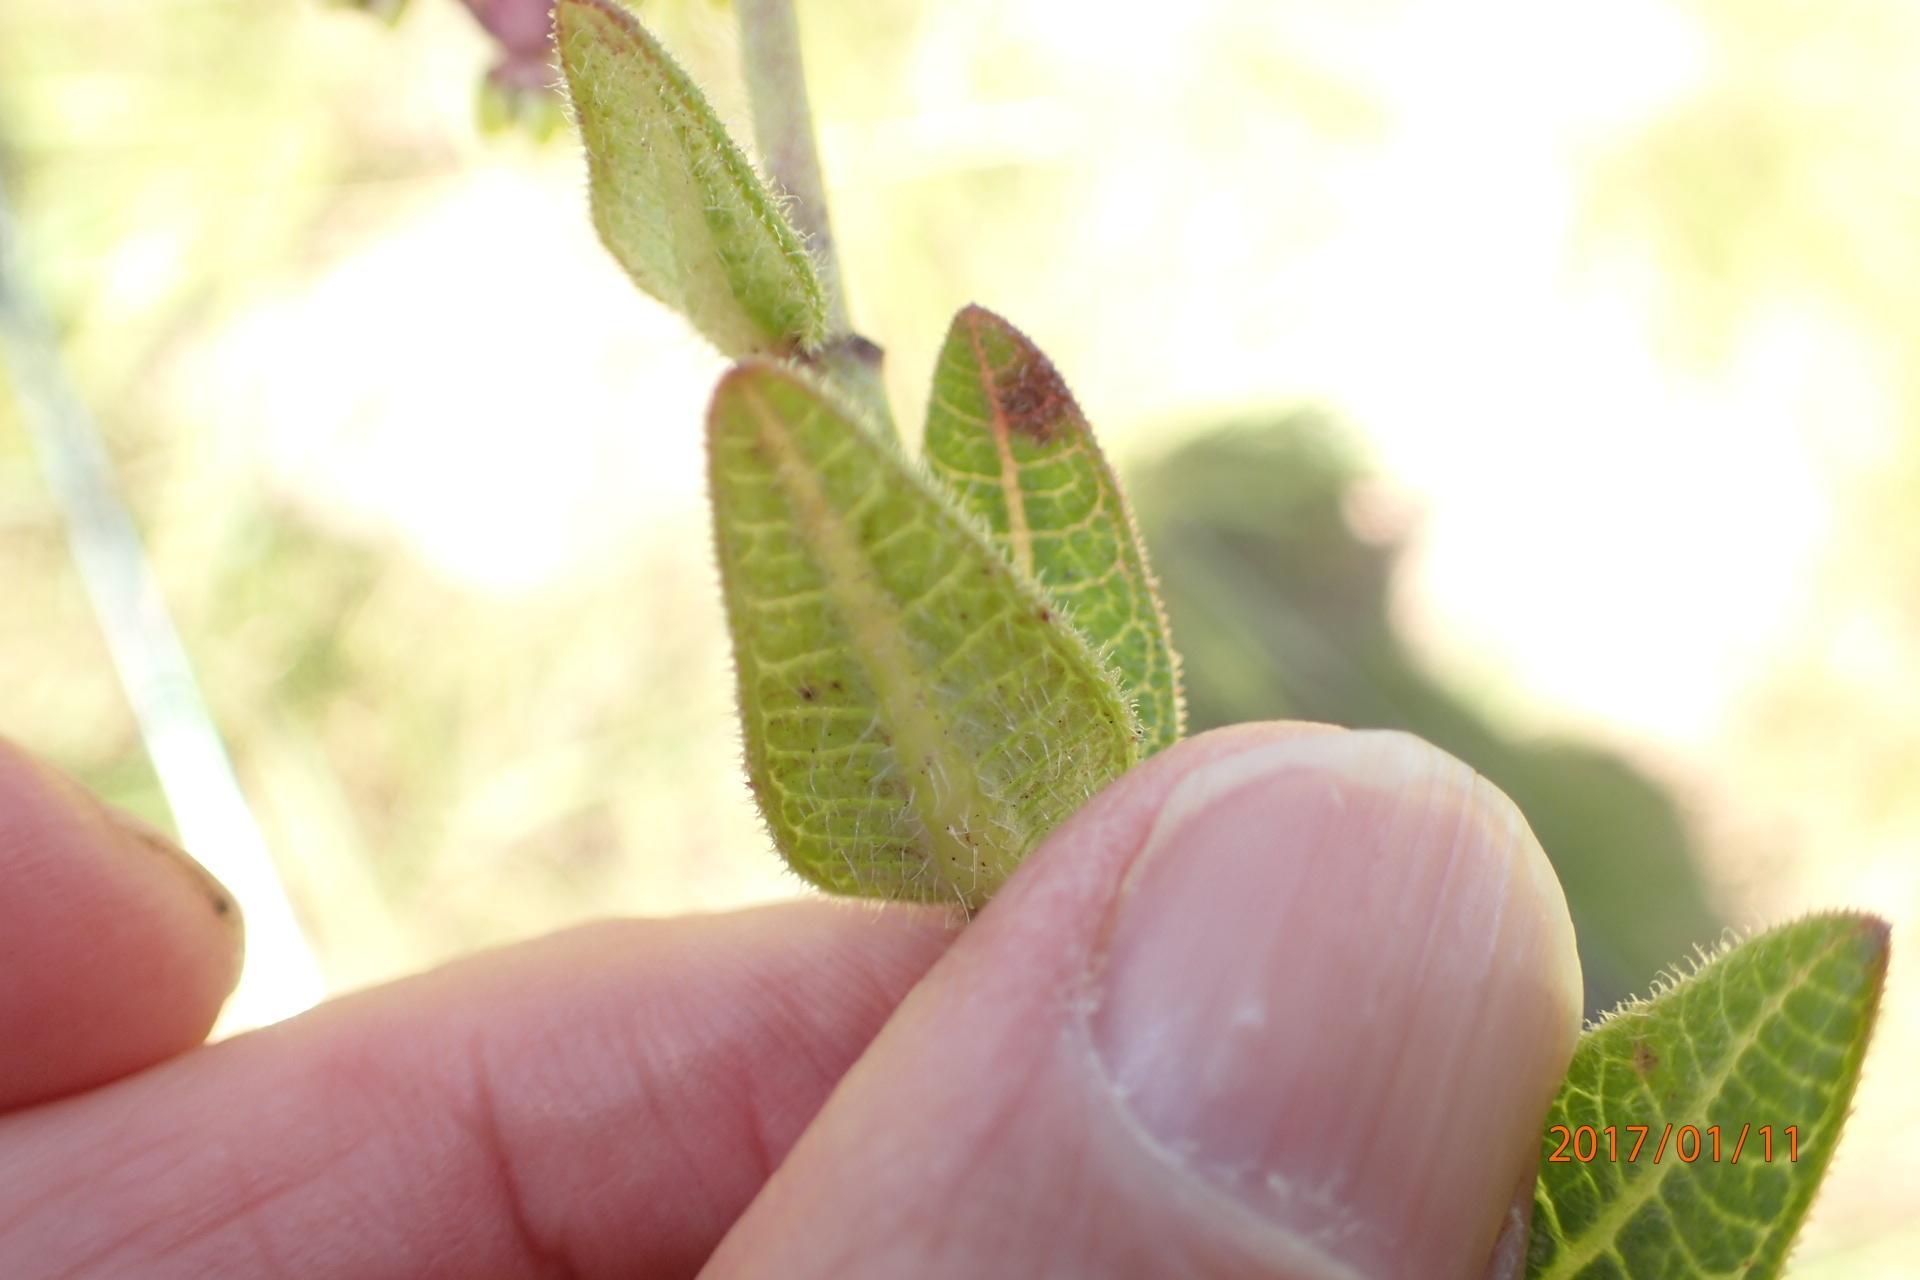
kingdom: Plantae
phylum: Tracheophyta
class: Magnoliopsida
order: Gentianales
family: Apocynaceae
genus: Asclepias
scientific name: Asclepias albens
